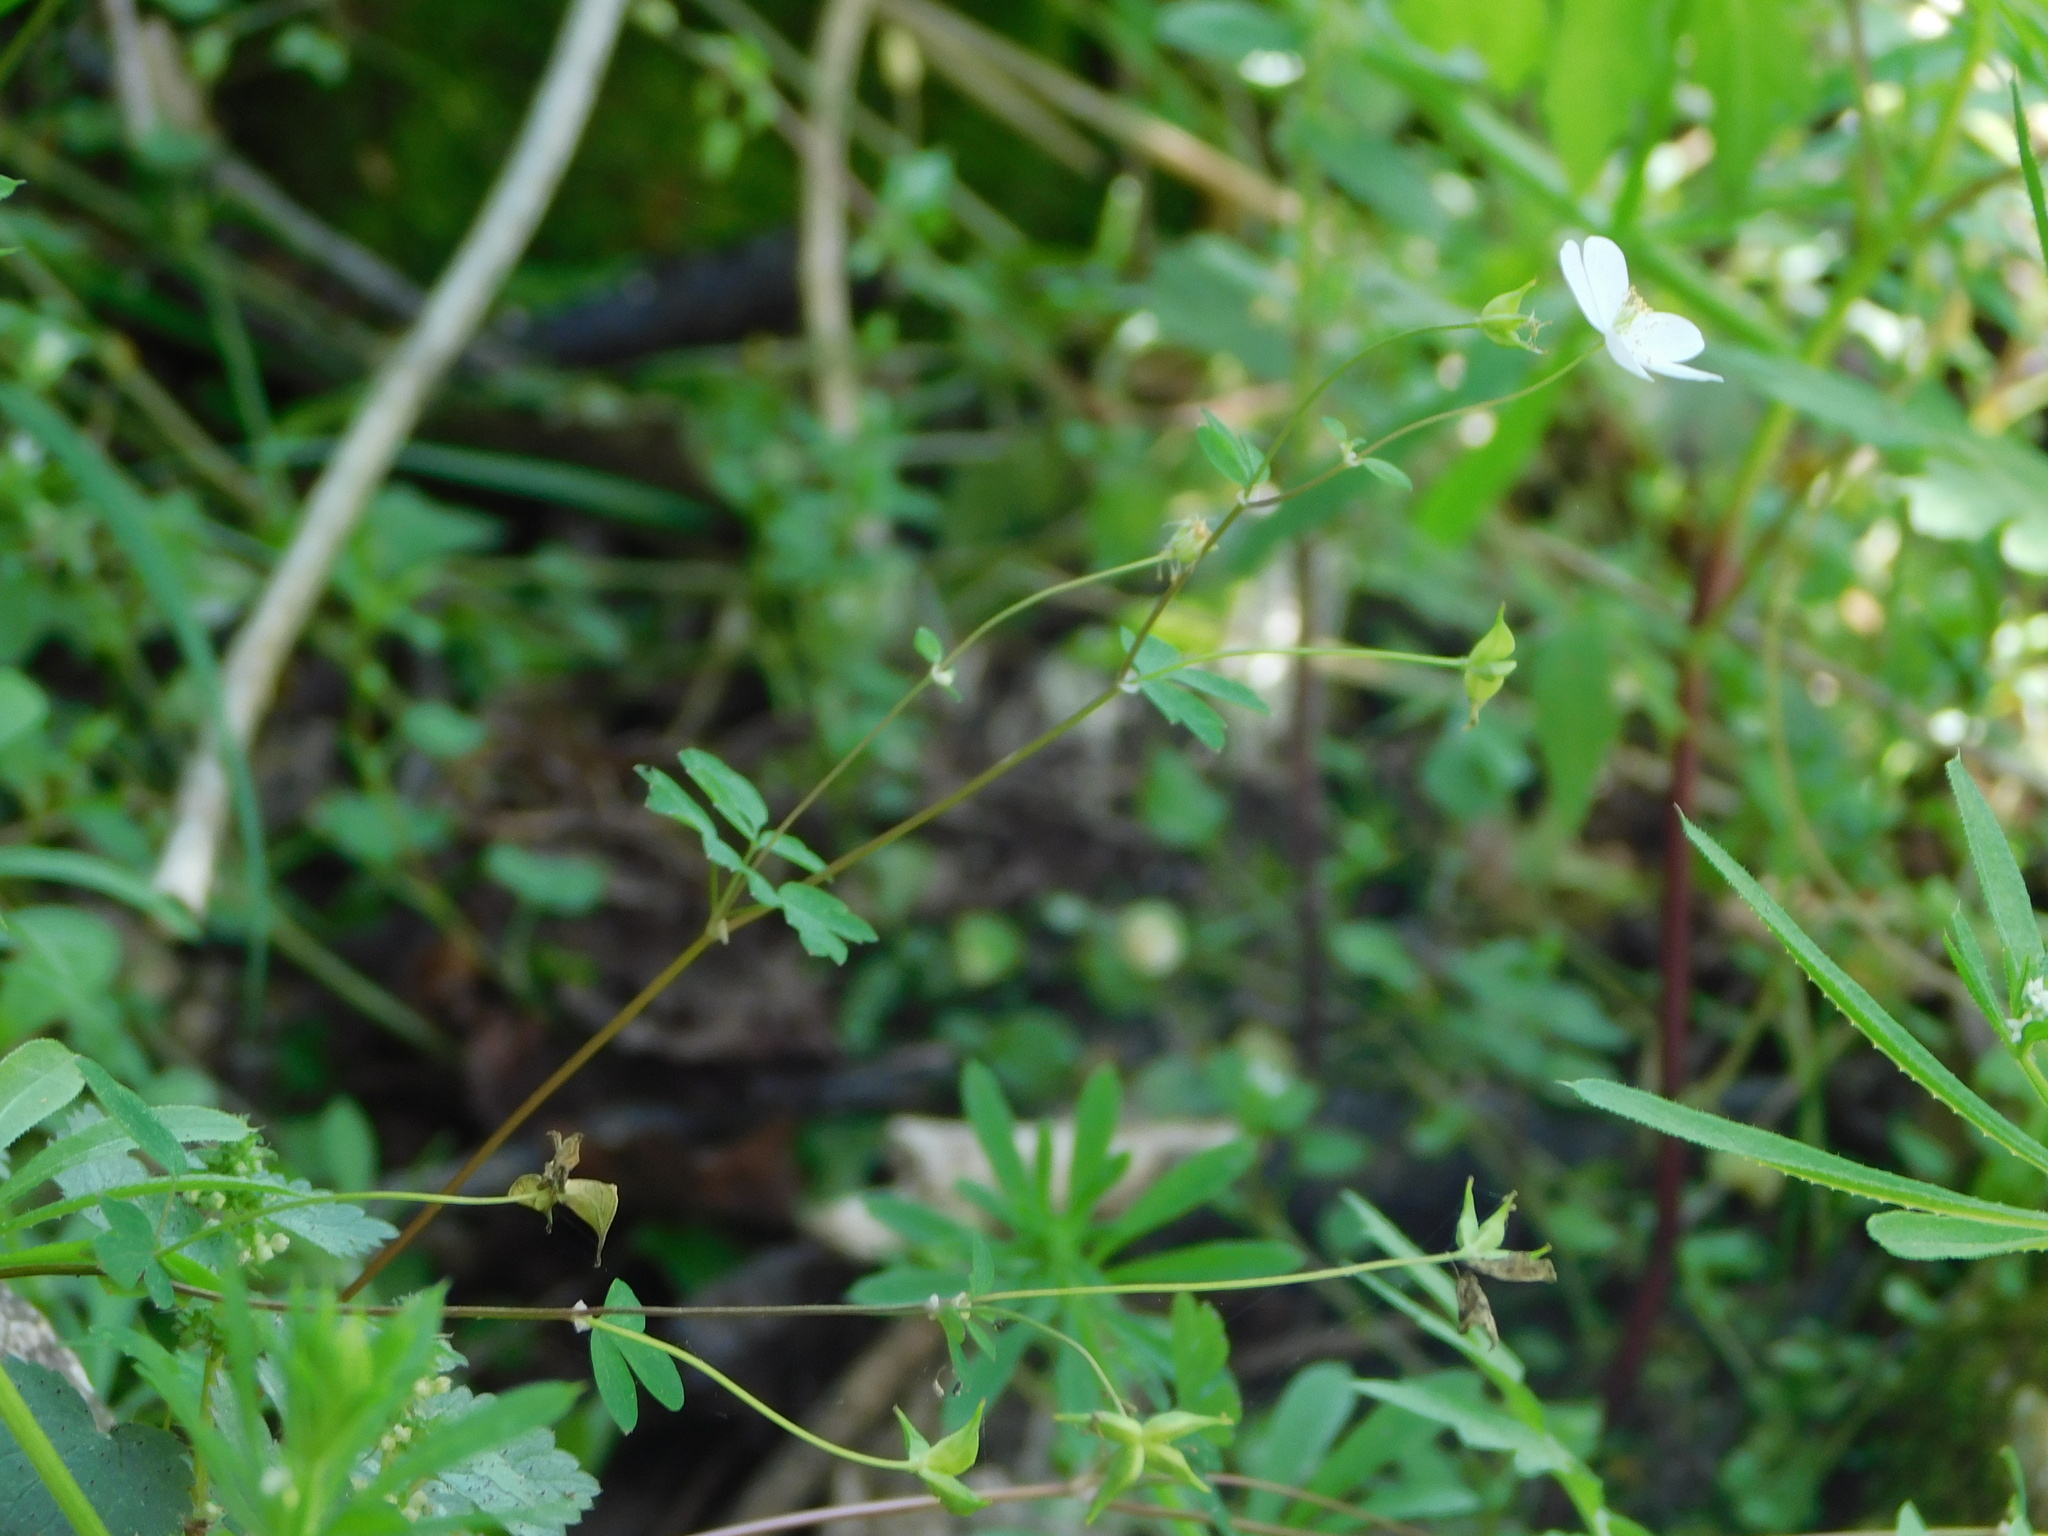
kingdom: Plantae
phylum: Tracheophyta
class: Magnoliopsida
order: Ranunculales
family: Ranunculaceae
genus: Enemion
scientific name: Enemion biternatum
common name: Eastern false rue-anemone
